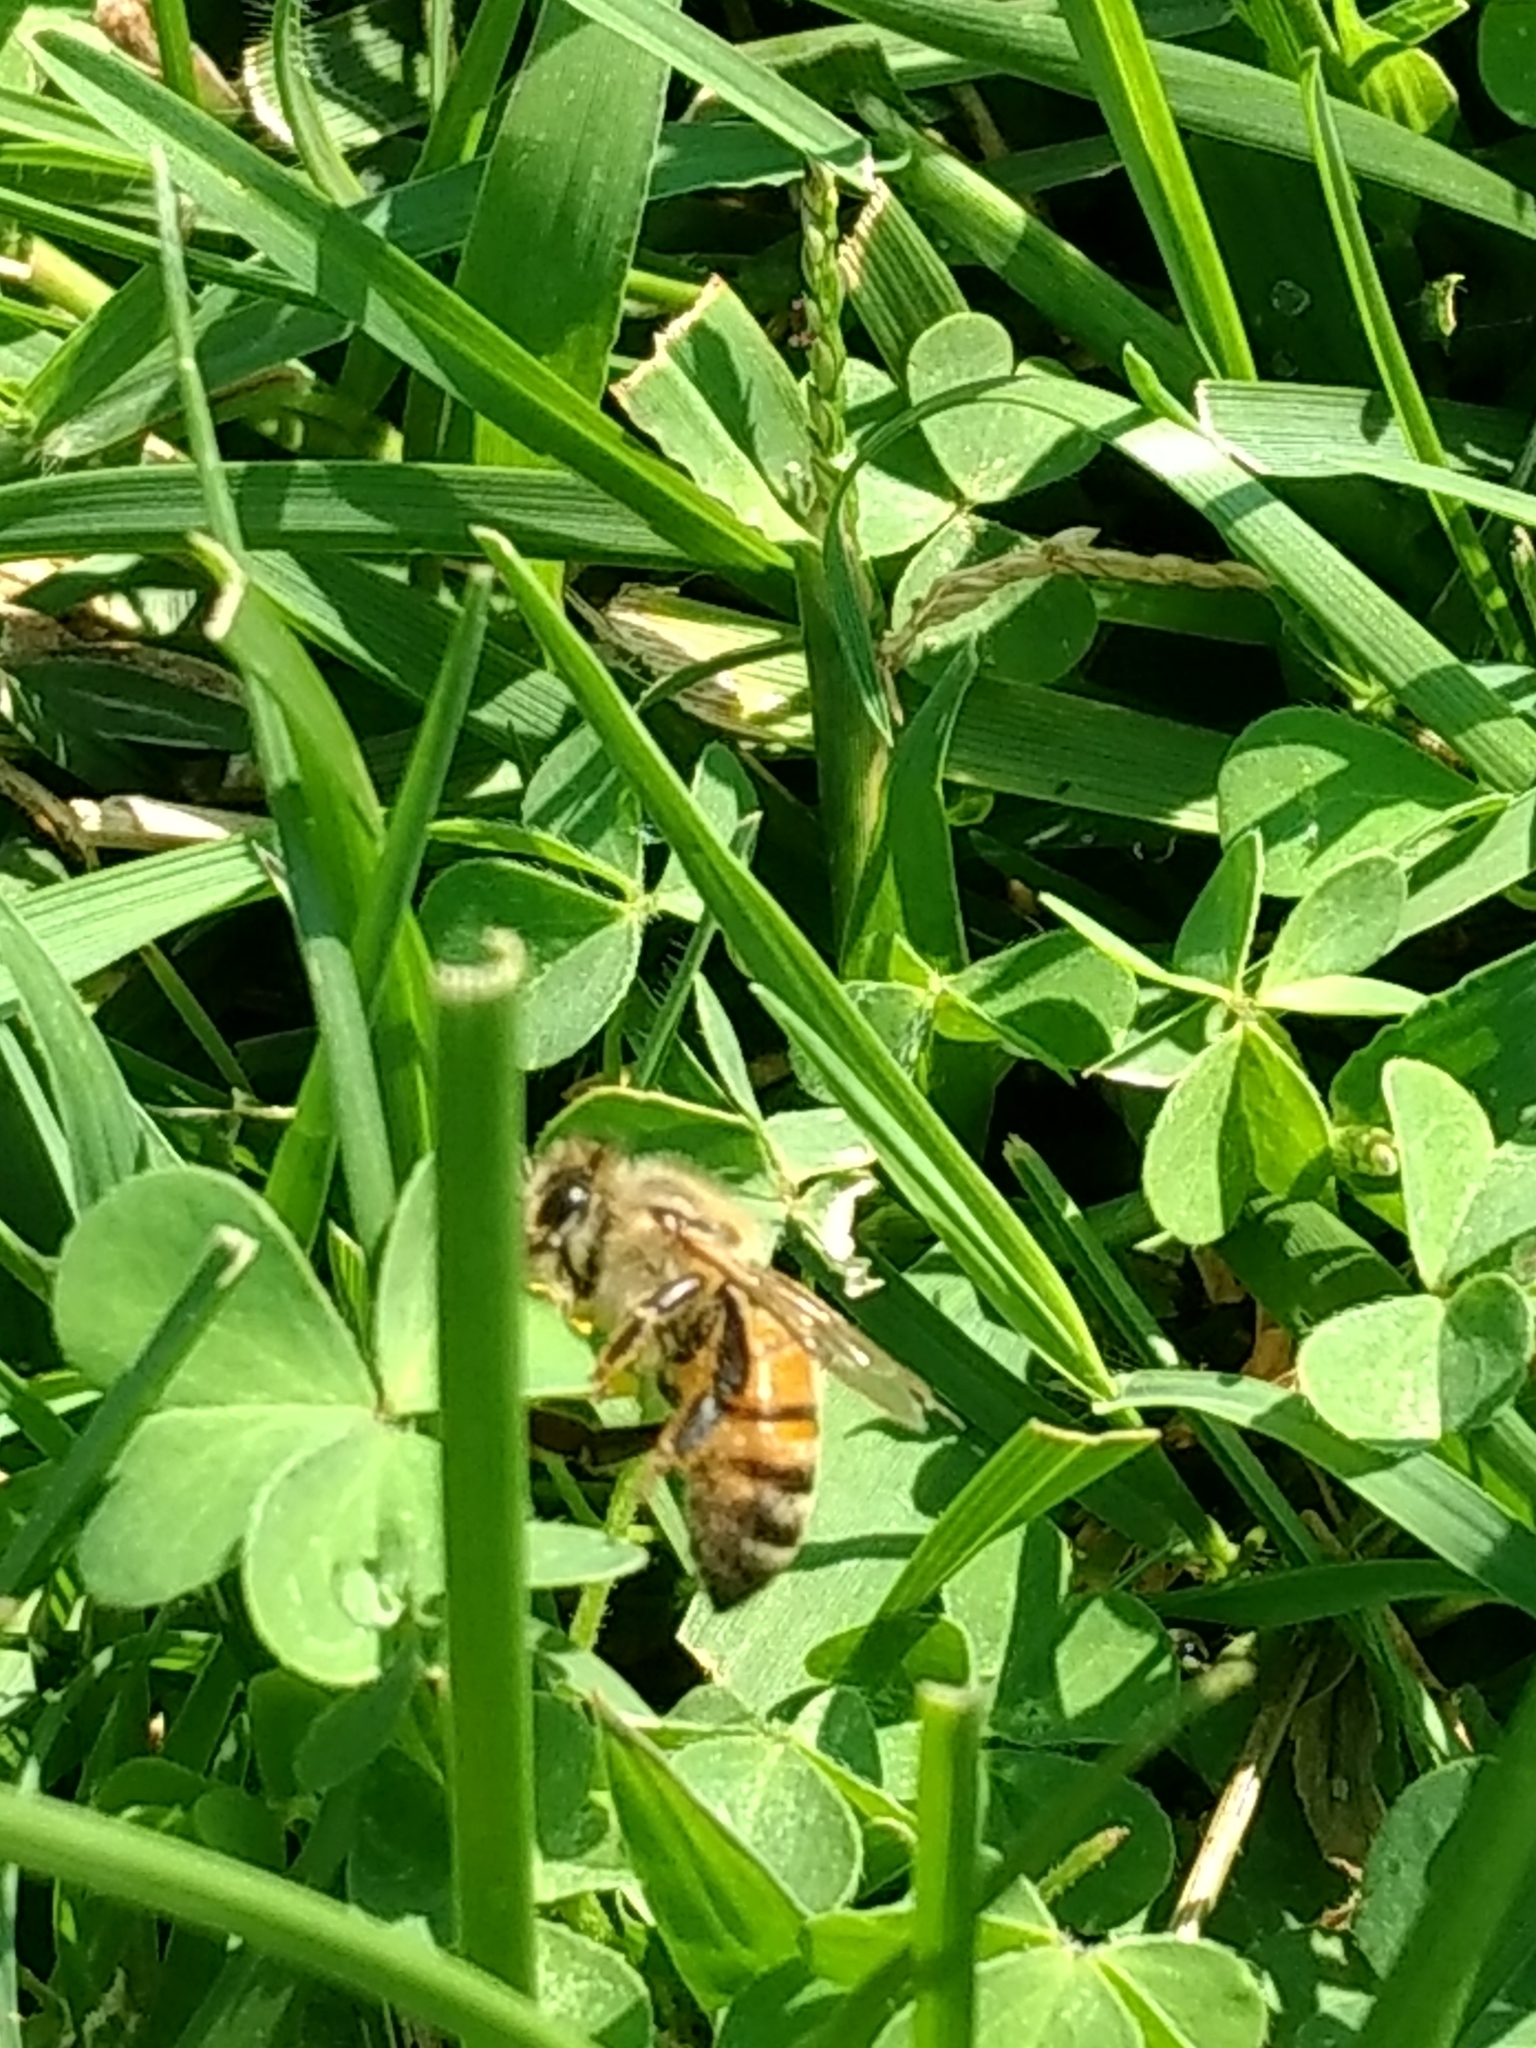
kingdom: Animalia
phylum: Arthropoda
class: Insecta
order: Hymenoptera
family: Apidae
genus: Apis
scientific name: Apis mellifera
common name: Honey bee
